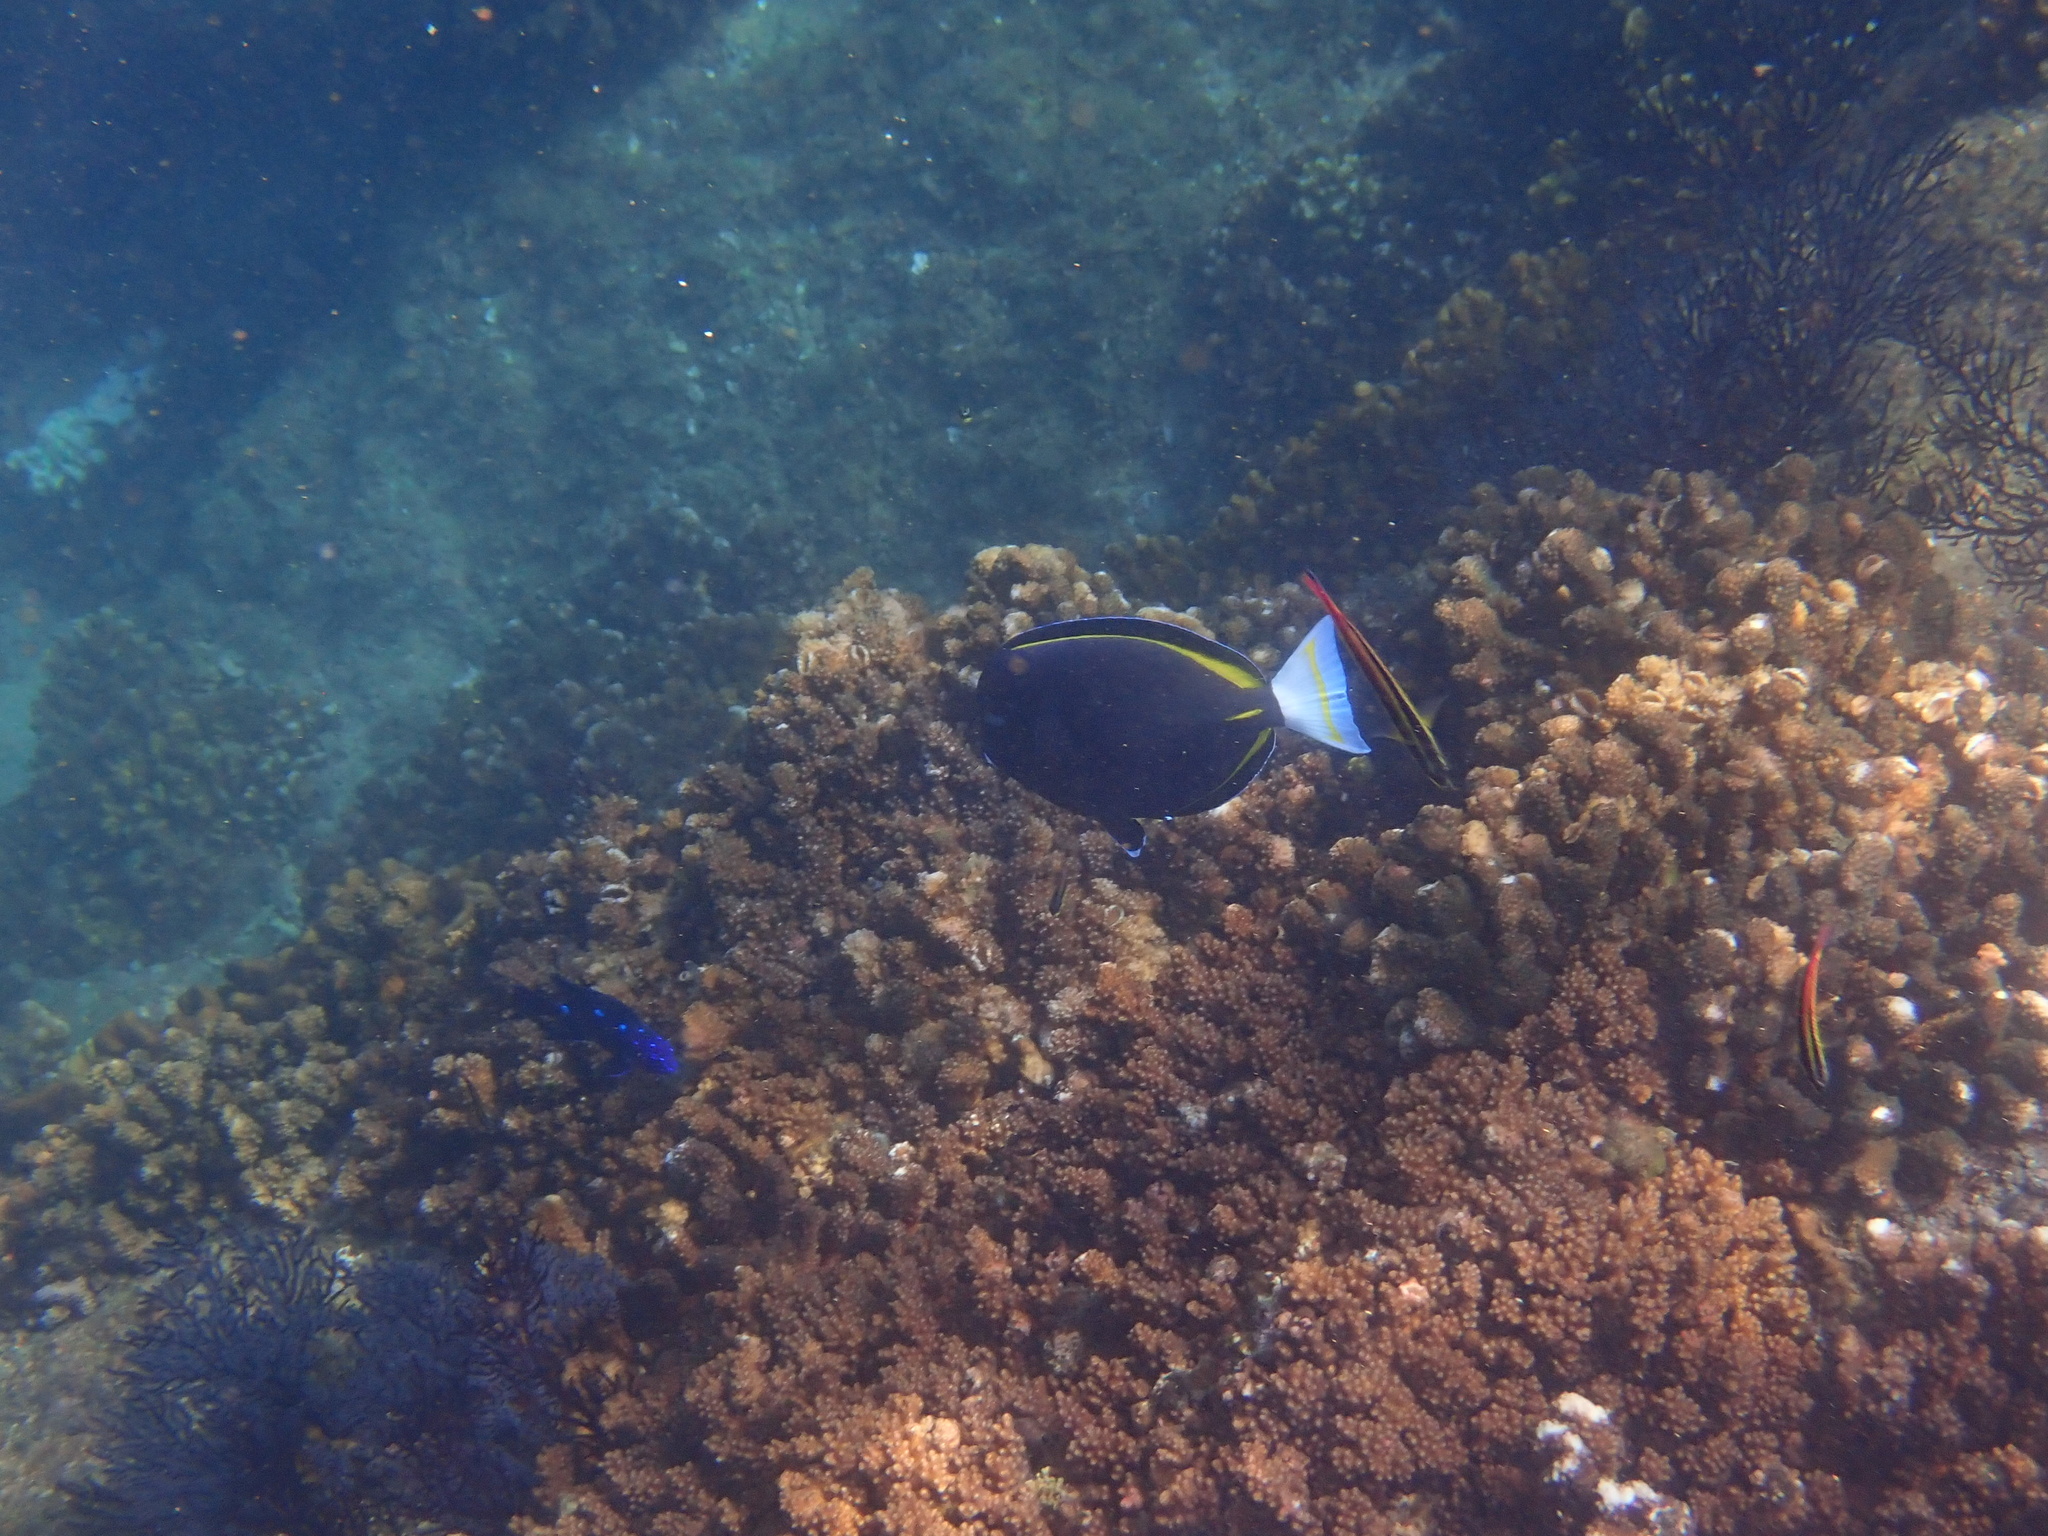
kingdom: Animalia
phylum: Chordata
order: Perciformes
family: Acanthuridae
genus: Acanthurus
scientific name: Acanthurus nigricans
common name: Whitecheek surgeonfish
